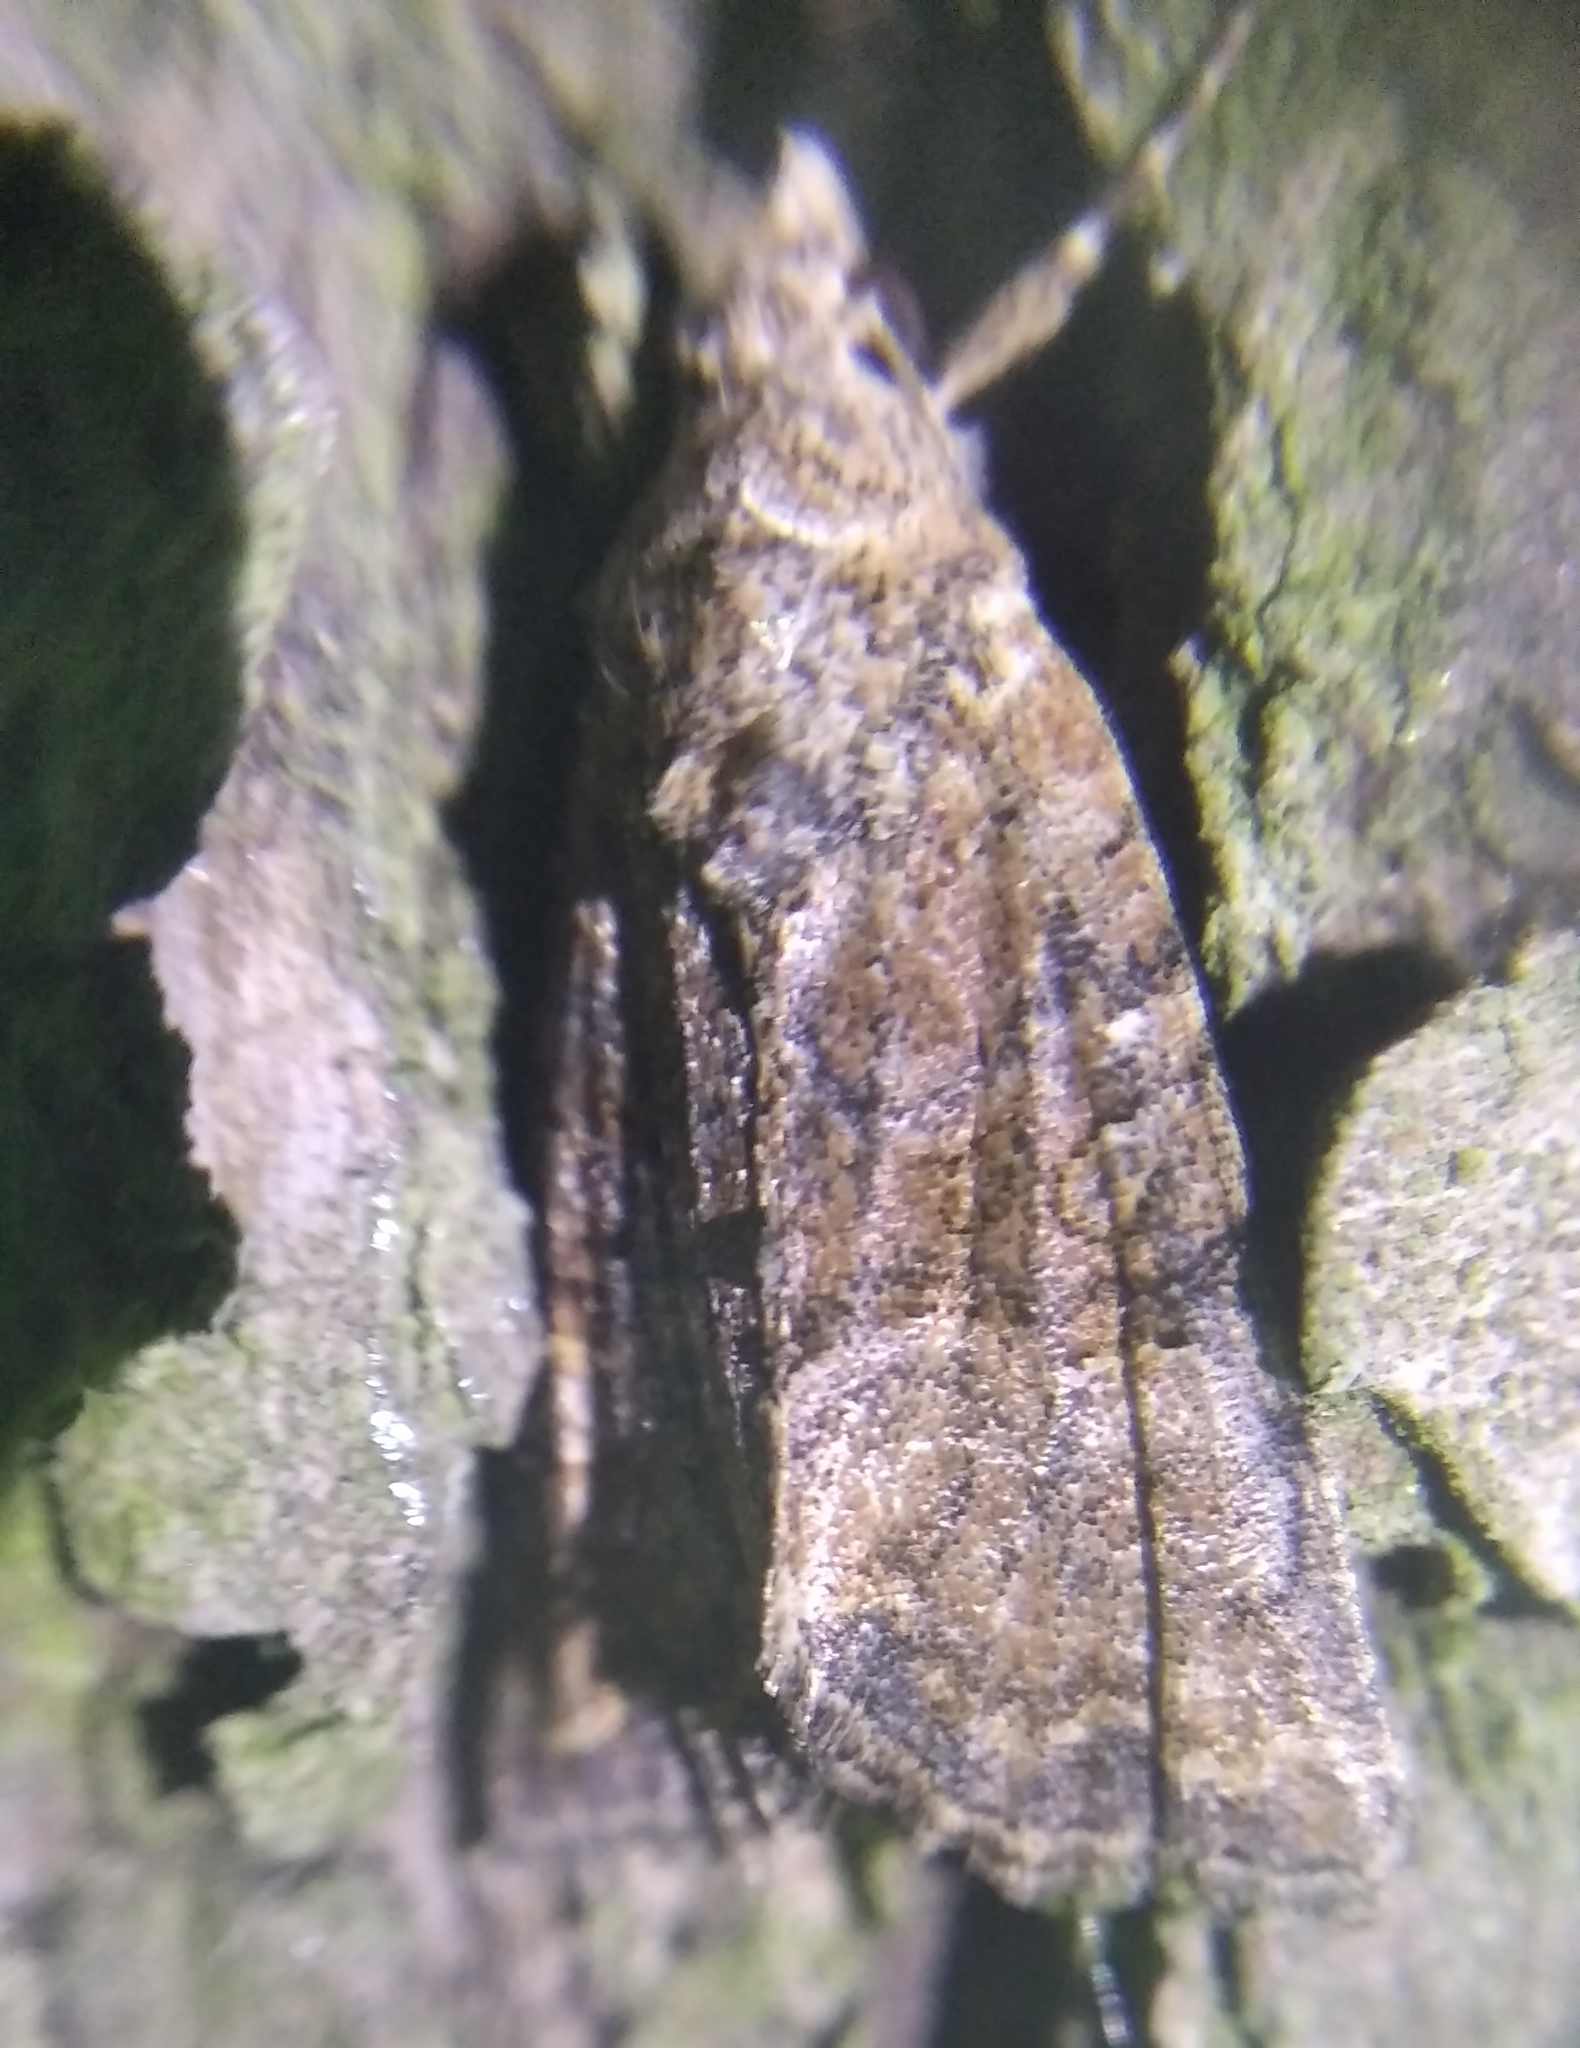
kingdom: Animalia
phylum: Arthropoda
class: Insecta
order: Lepidoptera
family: Noctuidae
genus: Mesoligia
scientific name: Mesoligia furuncula
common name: Cloaked minor
